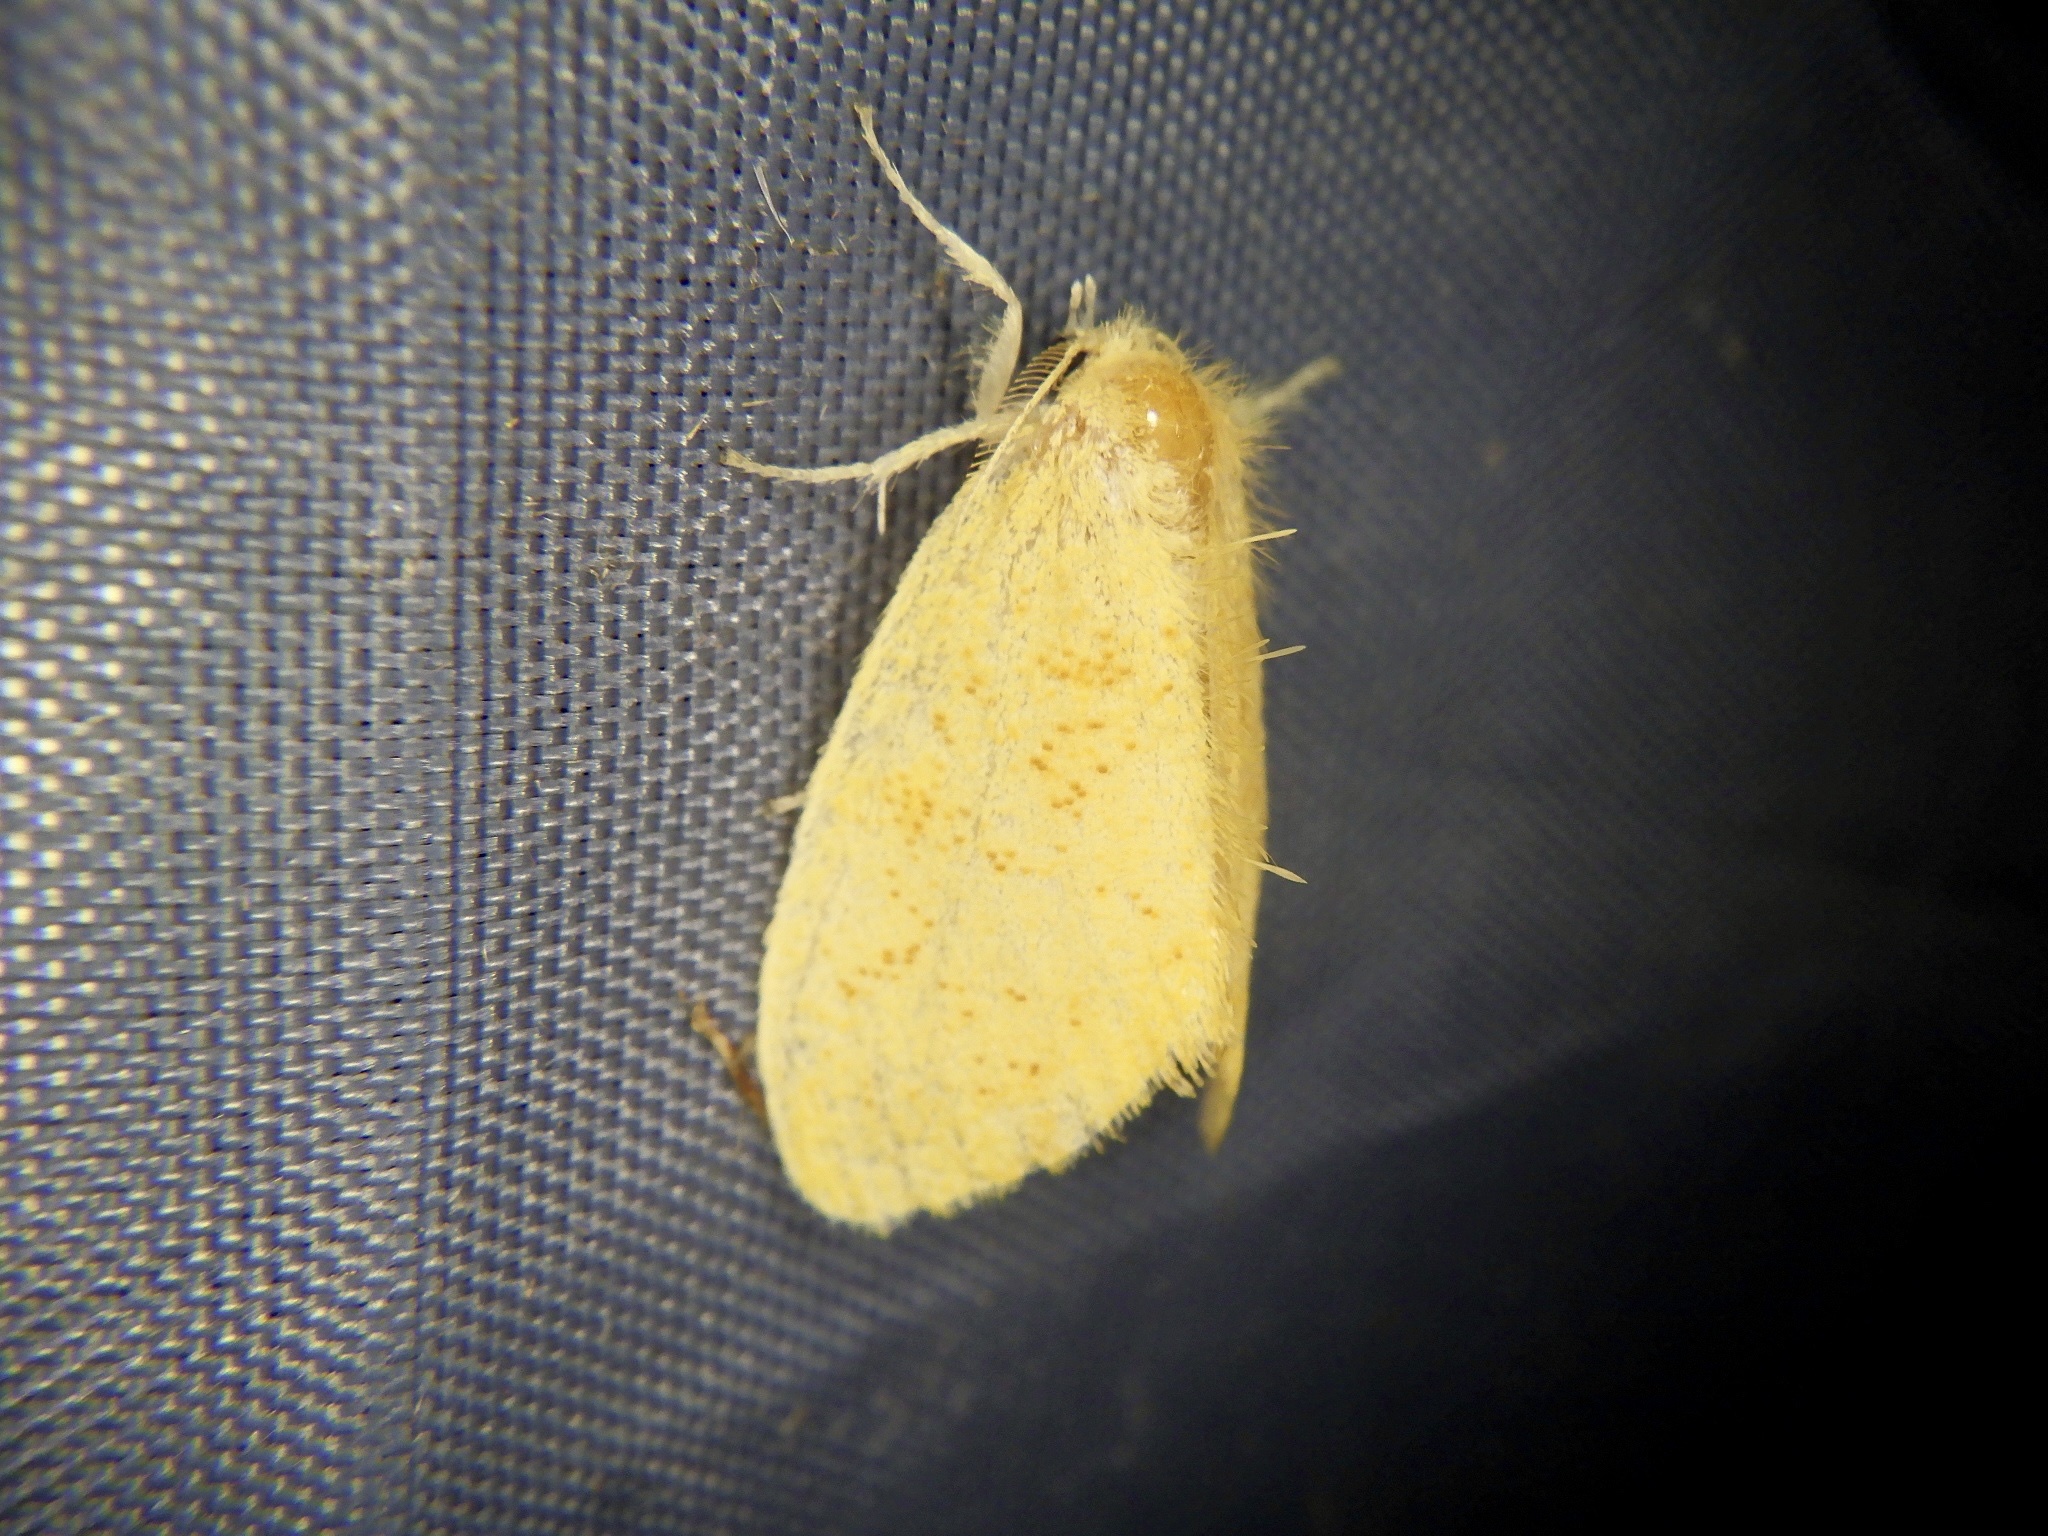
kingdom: Animalia
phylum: Arthropoda
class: Insecta
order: Lepidoptera
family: Erebidae
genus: Somena
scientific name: Somena
